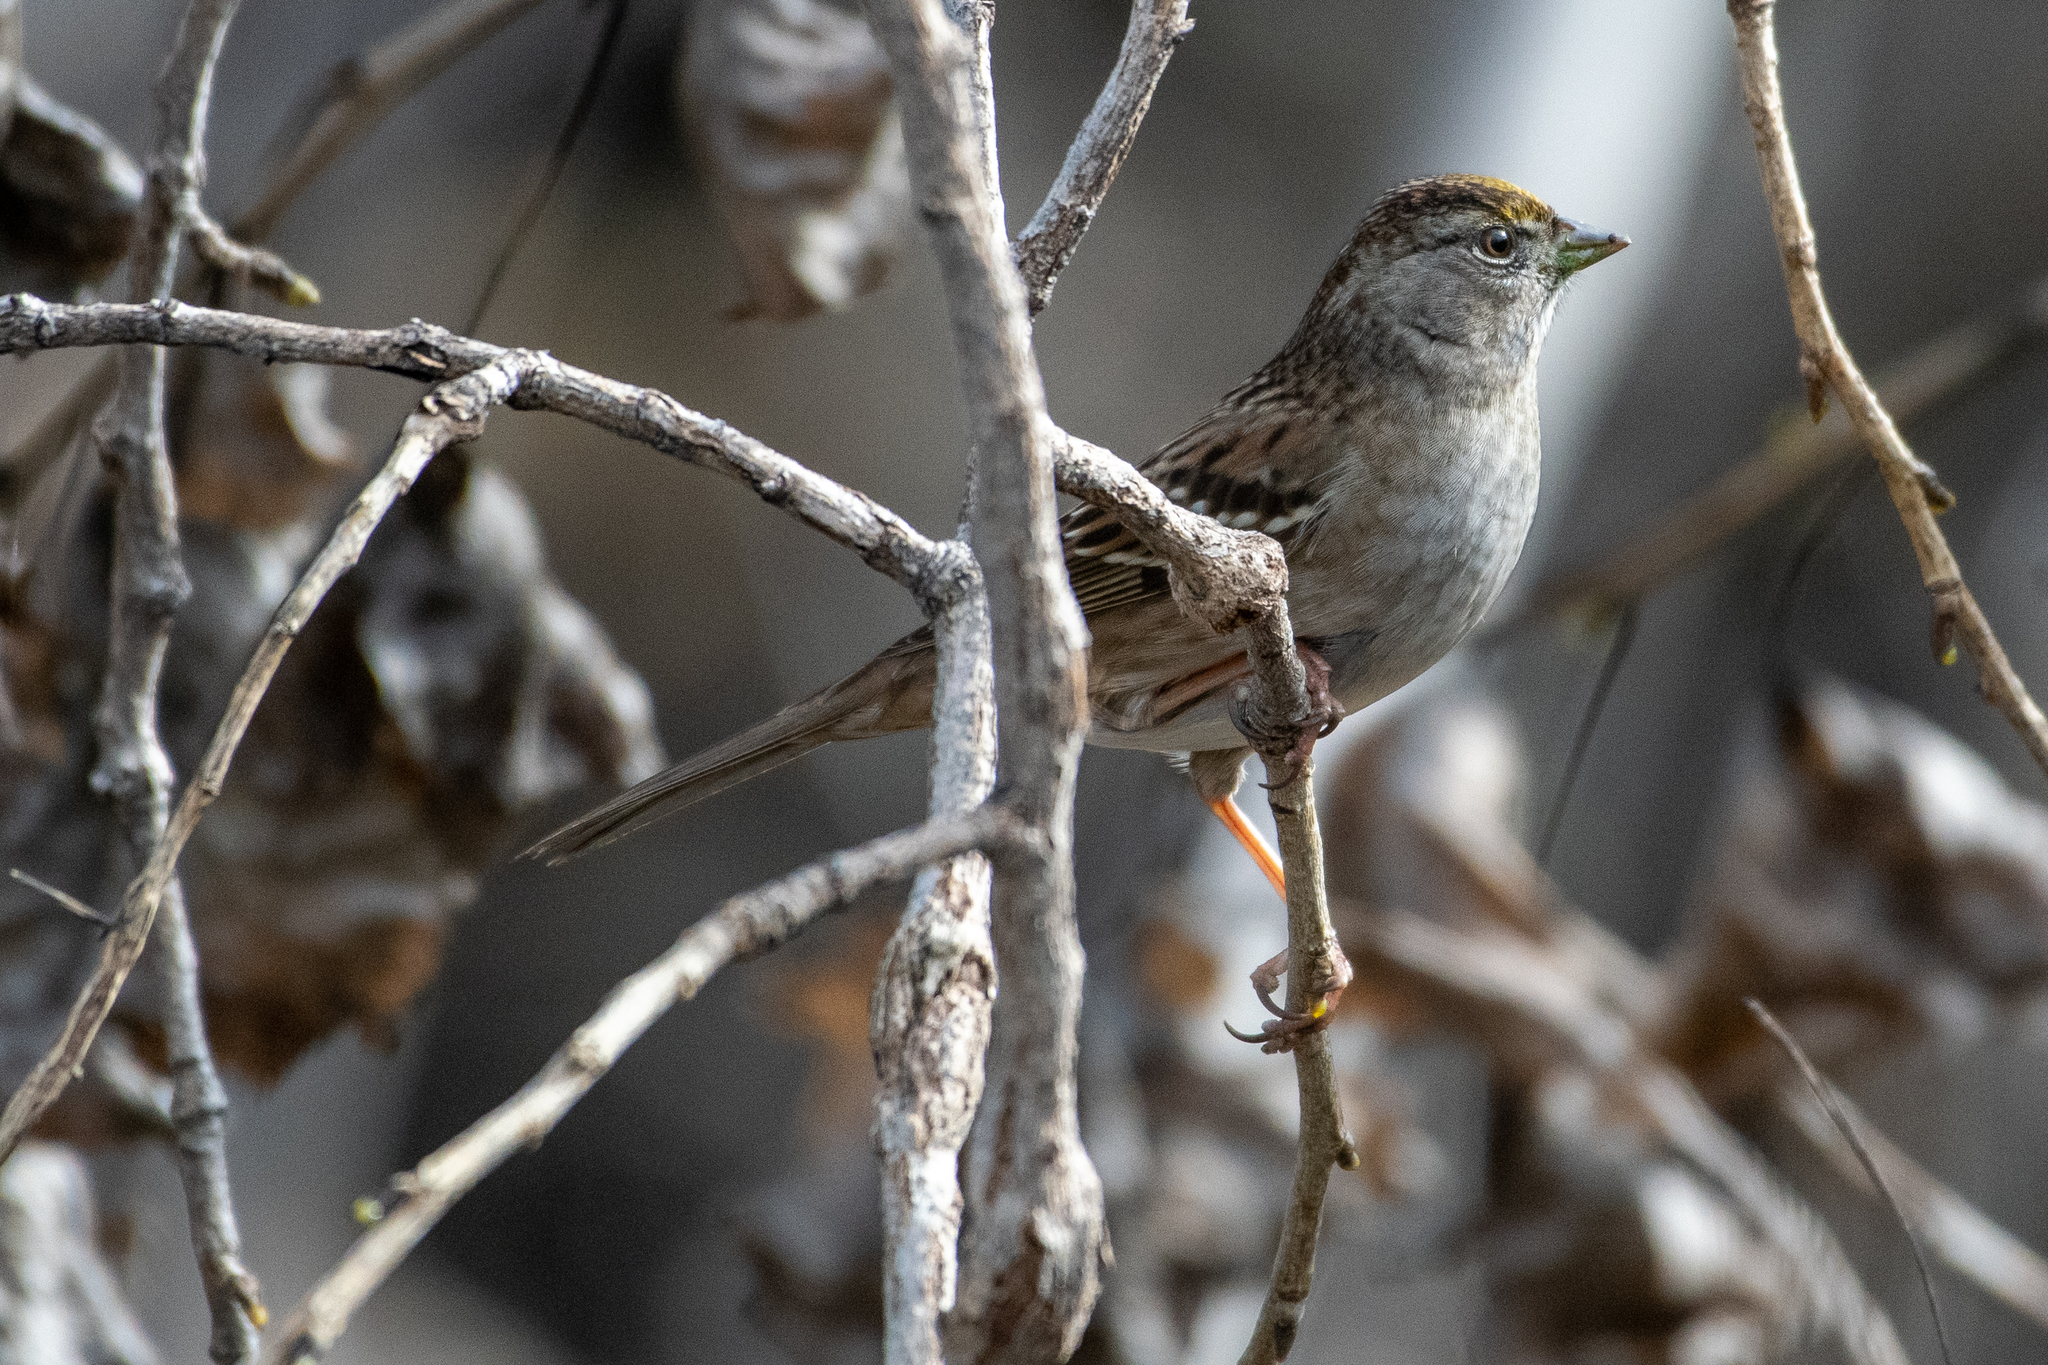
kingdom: Animalia
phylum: Chordata
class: Aves
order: Passeriformes
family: Passerellidae
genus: Zonotrichia
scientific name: Zonotrichia atricapilla
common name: Golden-crowned sparrow
